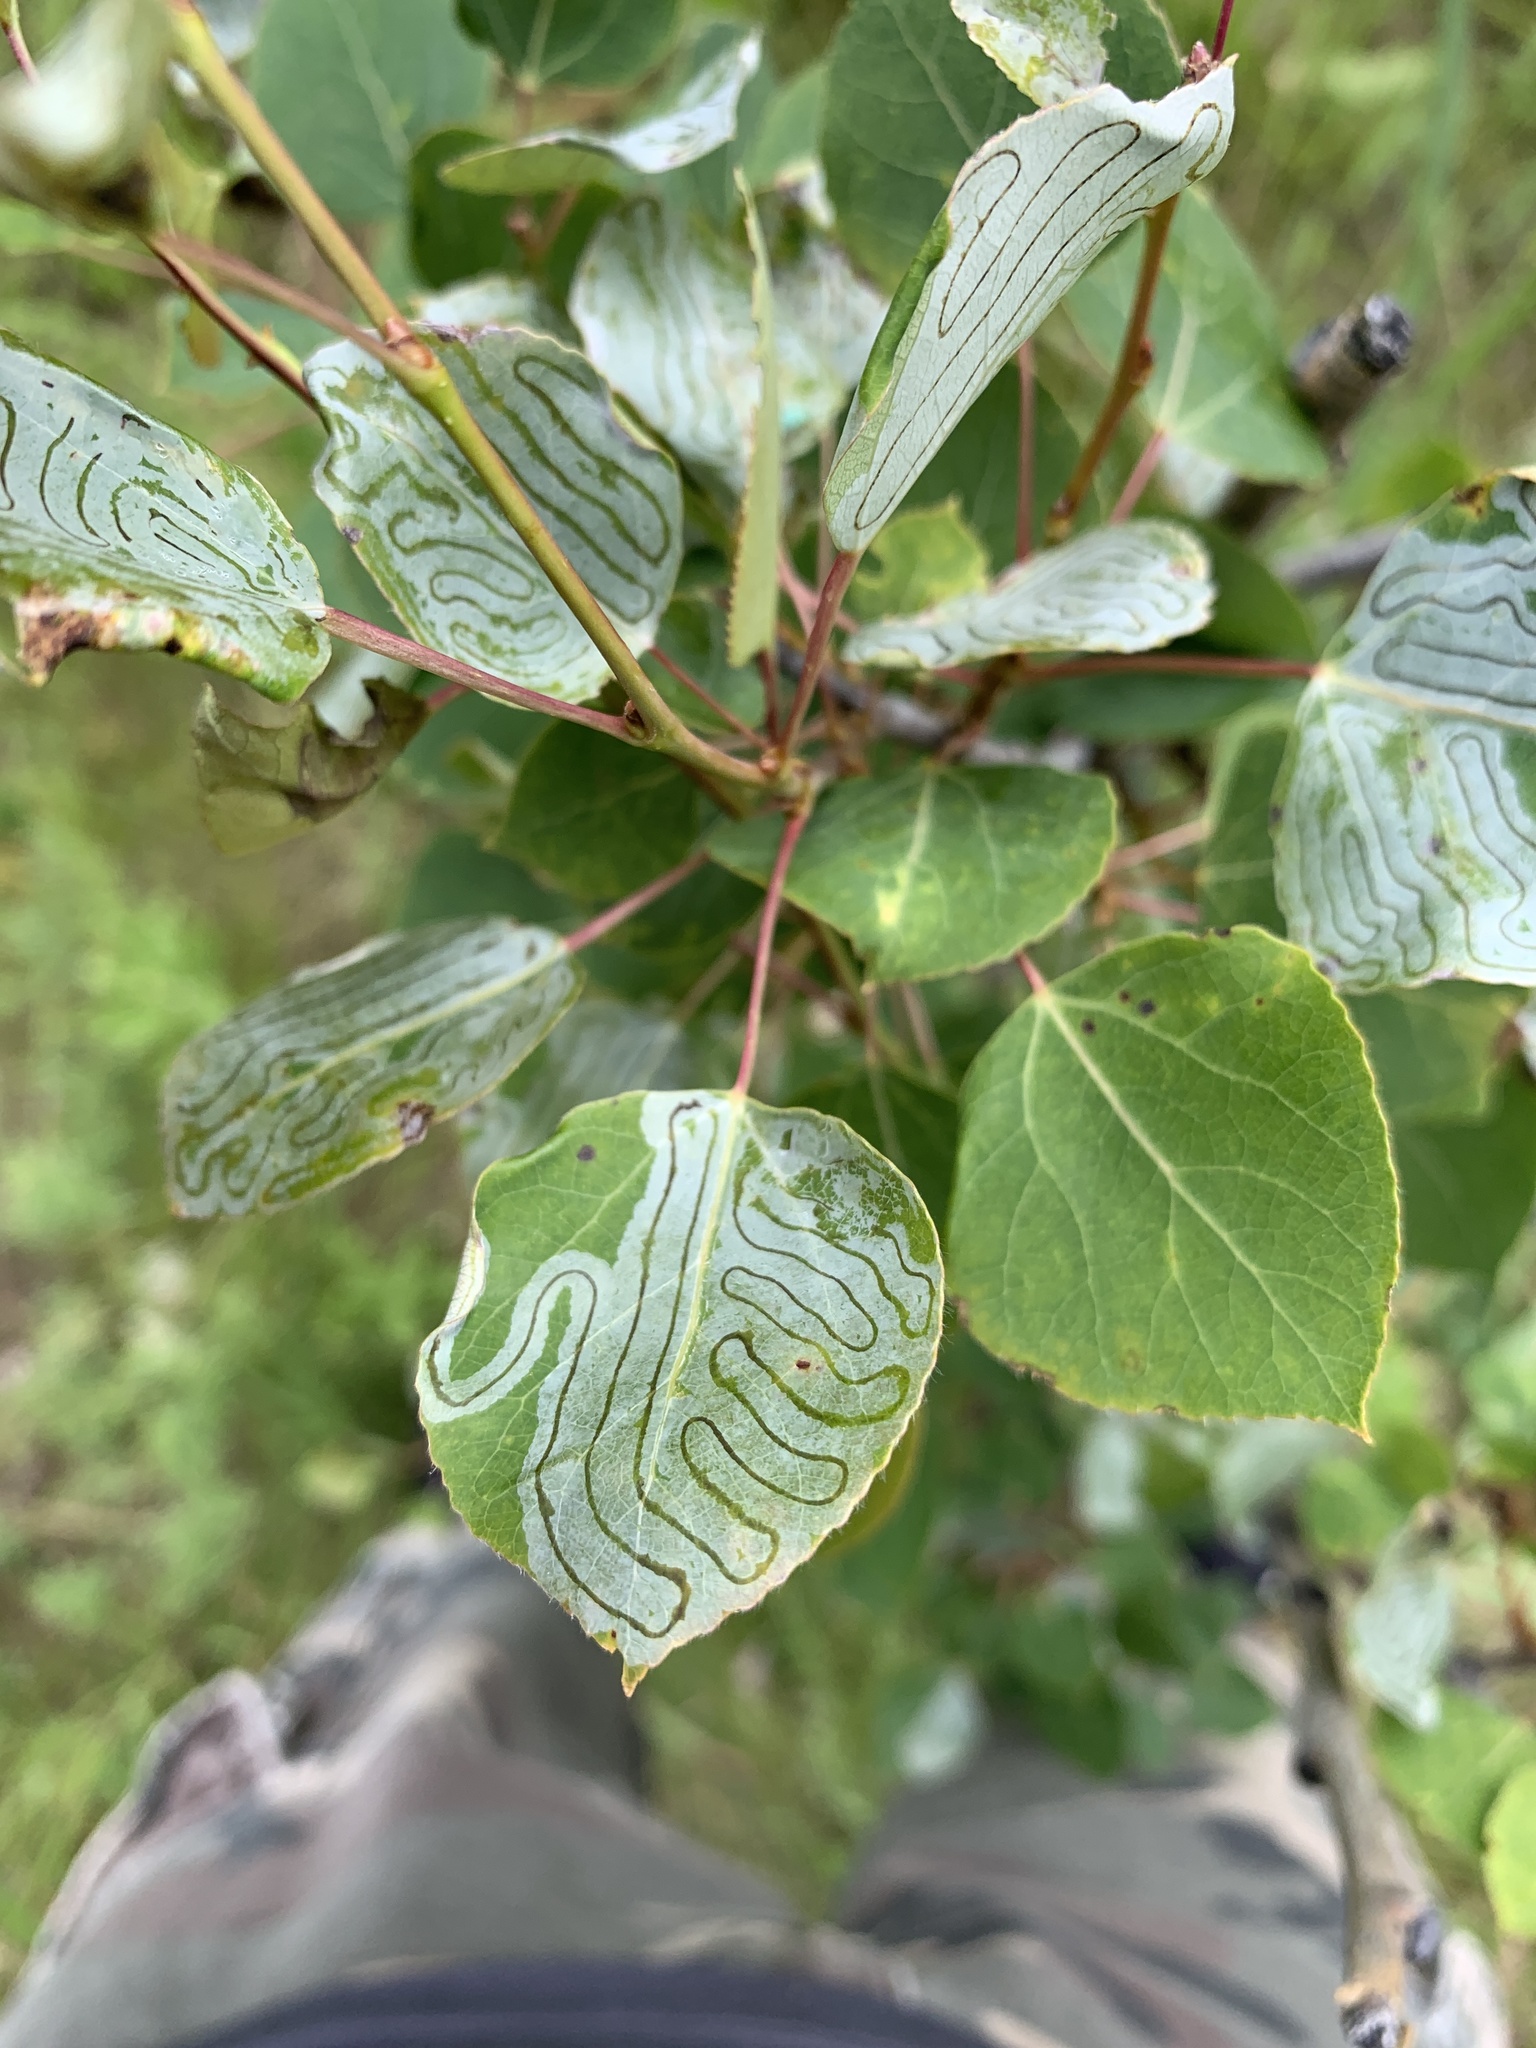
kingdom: Animalia
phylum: Arthropoda
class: Insecta
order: Lepidoptera
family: Gracillariidae
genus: Phyllocnistis
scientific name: Phyllocnistis populiella
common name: Aspen serpentine leafminer moth
